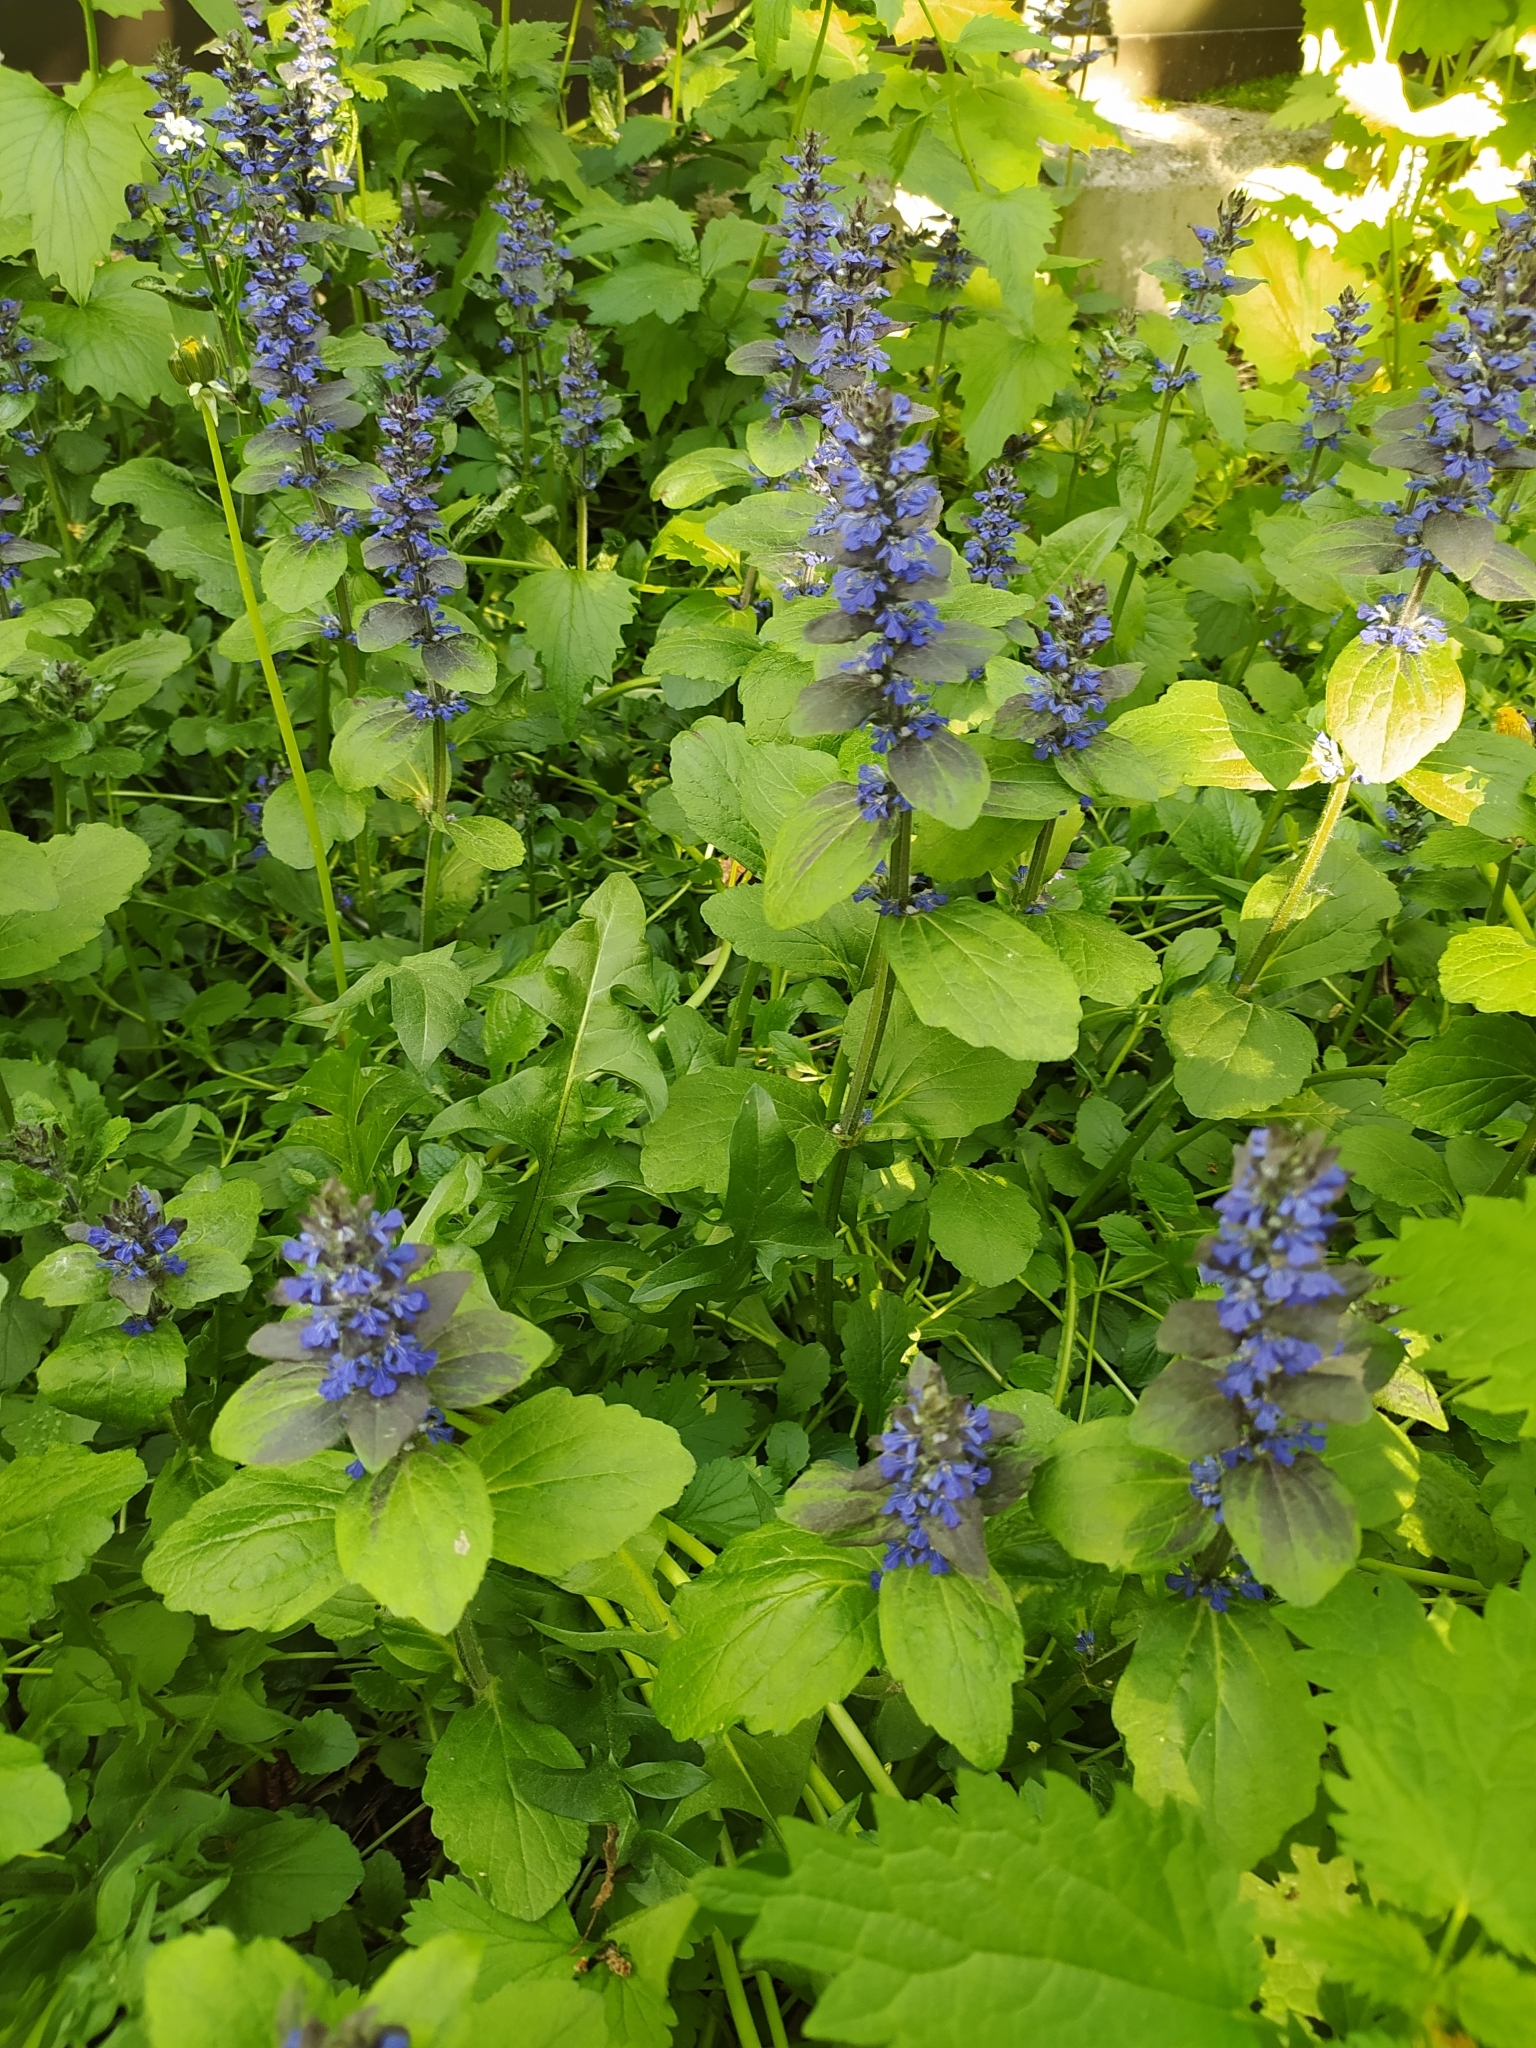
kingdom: Plantae
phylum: Tracheophyta
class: Magnoliopsida
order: Lamiales
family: Lamiaceae
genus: Ajuga
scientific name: Ajuga reptans
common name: Bugle
